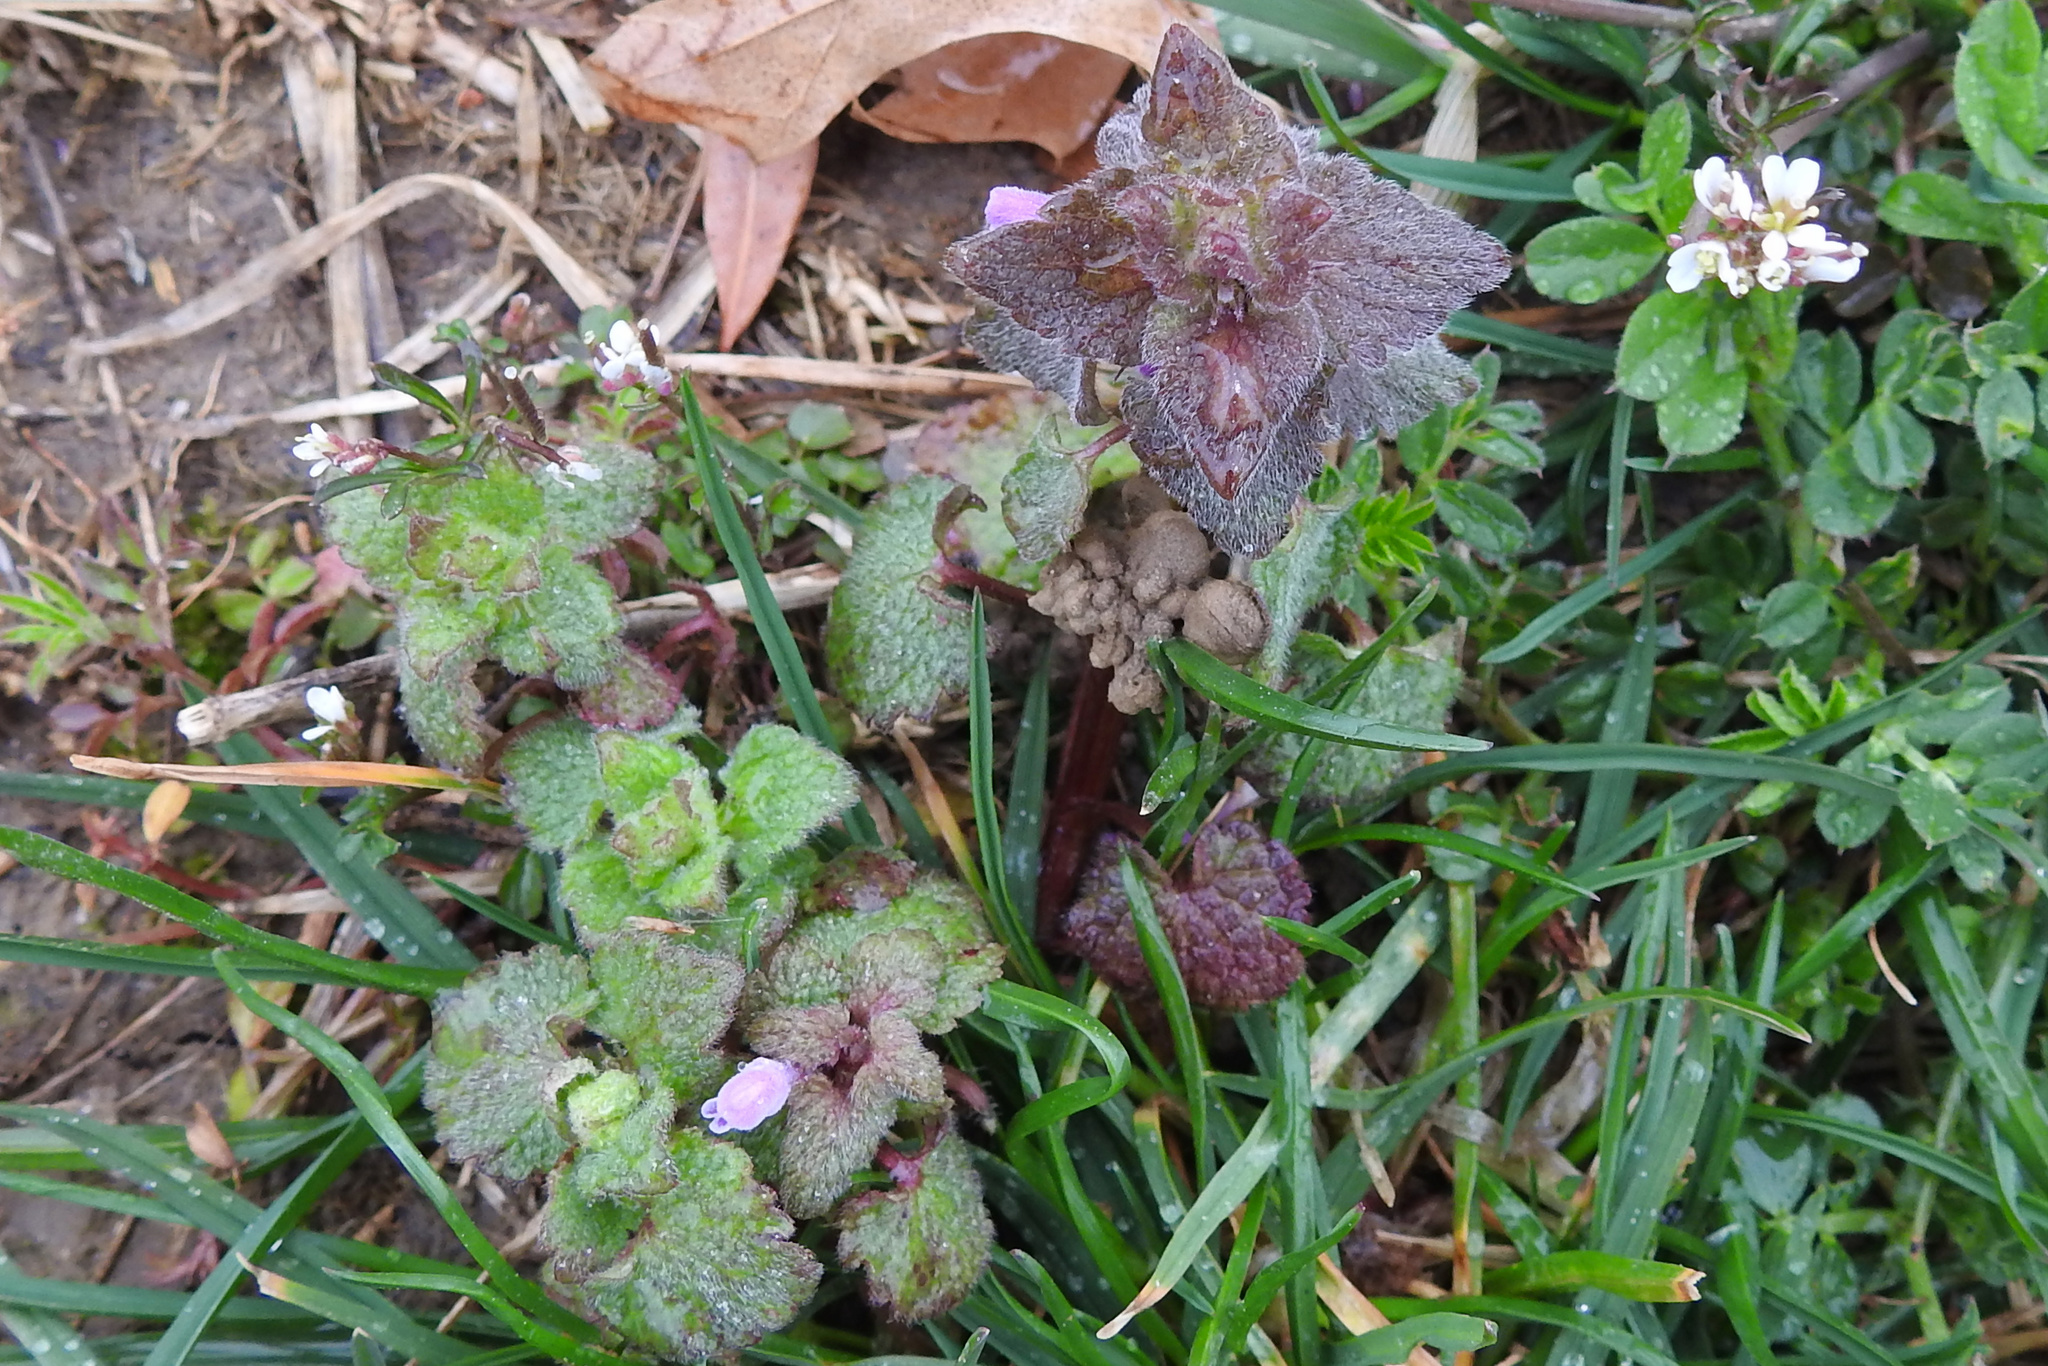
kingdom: Plantae
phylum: Tracheophyta
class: Magnoliopsida
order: Lamiales
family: Lamiaceae
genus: Lamium
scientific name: Lamium purpureum
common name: Red dead-nettle
